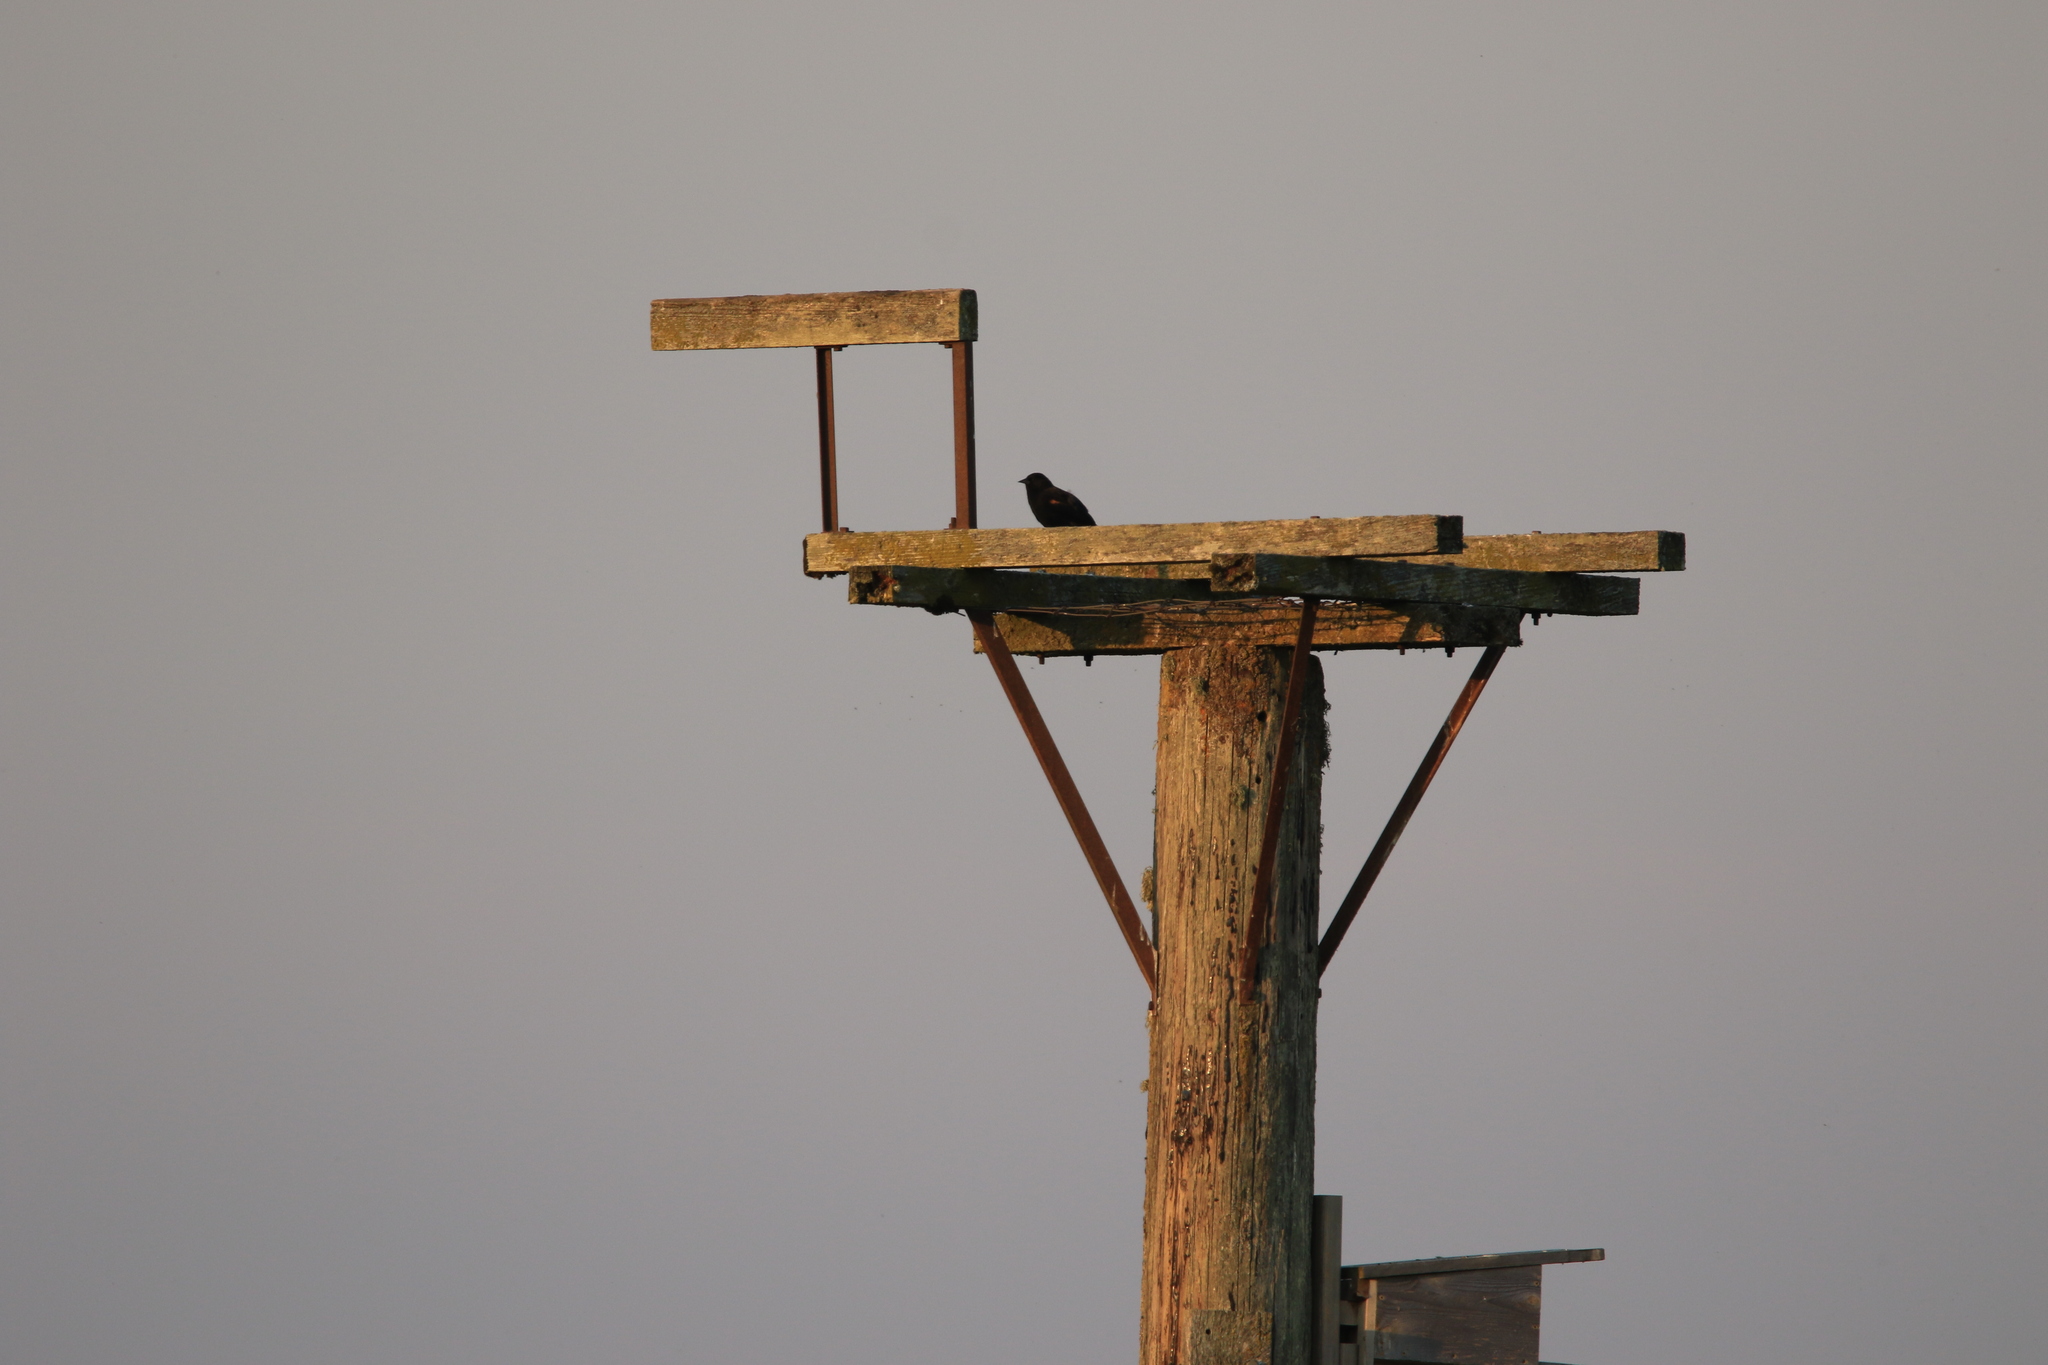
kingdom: Animalia
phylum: Chordata
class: Aves
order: Passeriformes
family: Icteridae
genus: Agelaius
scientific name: Agelaius phoeniceus
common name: Red-winged blackbird
